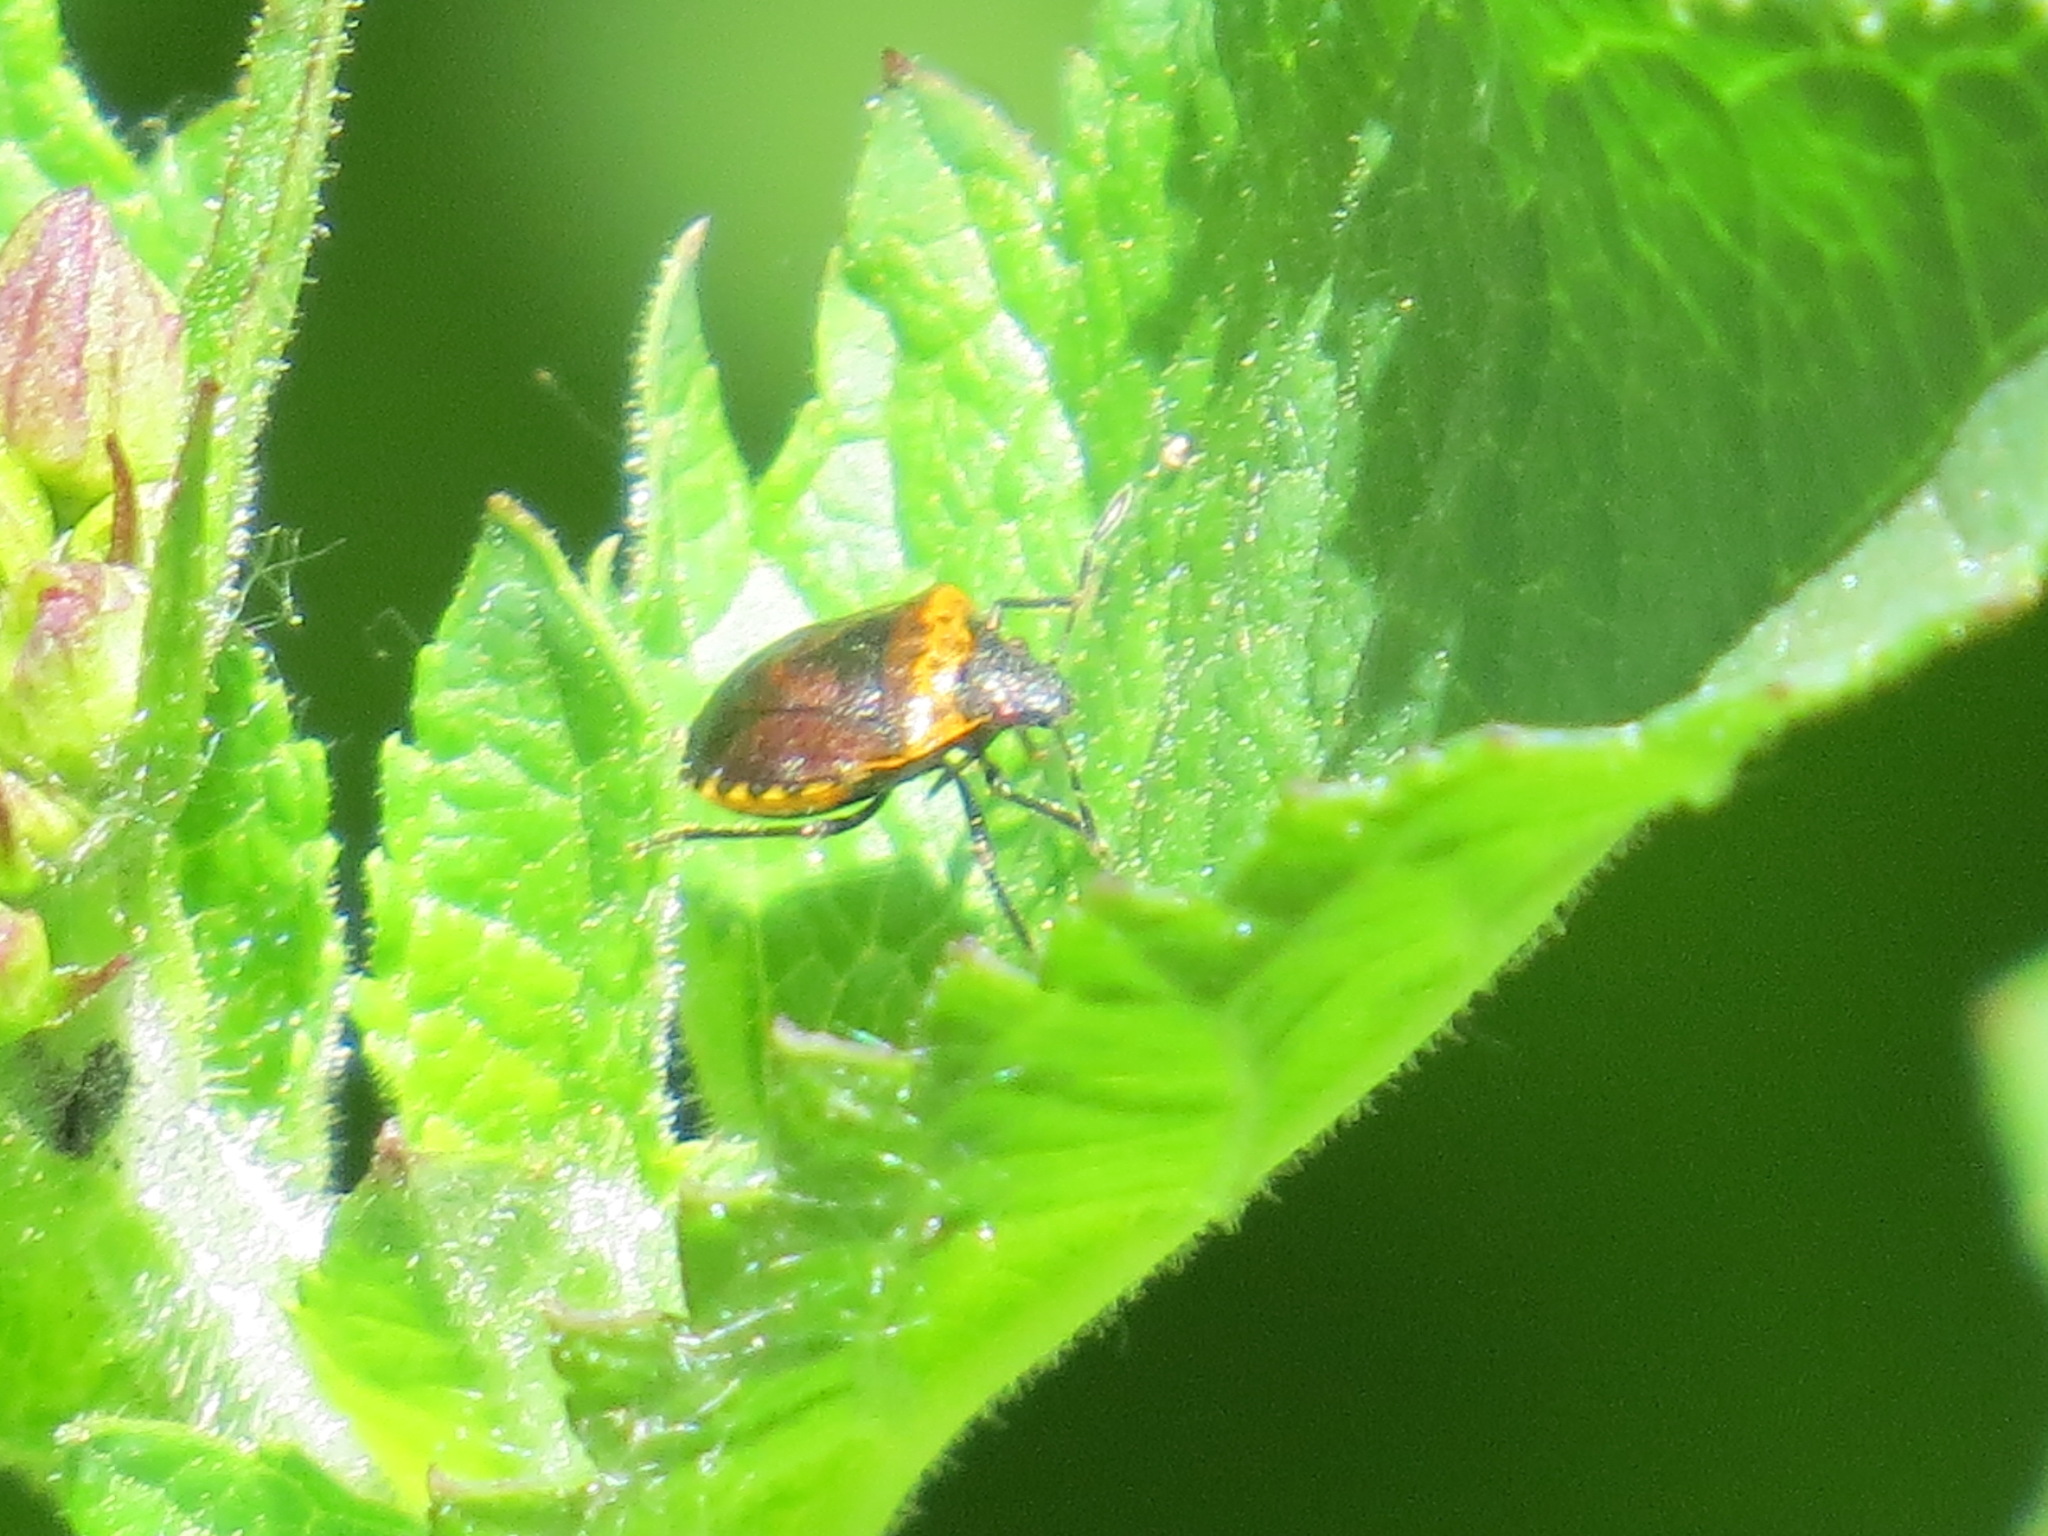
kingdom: Animalia
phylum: Arthropoda
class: Insecta
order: Hemiptera
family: Pentatomidae
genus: Cosmopepla
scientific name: Cosmopepla uhleri
